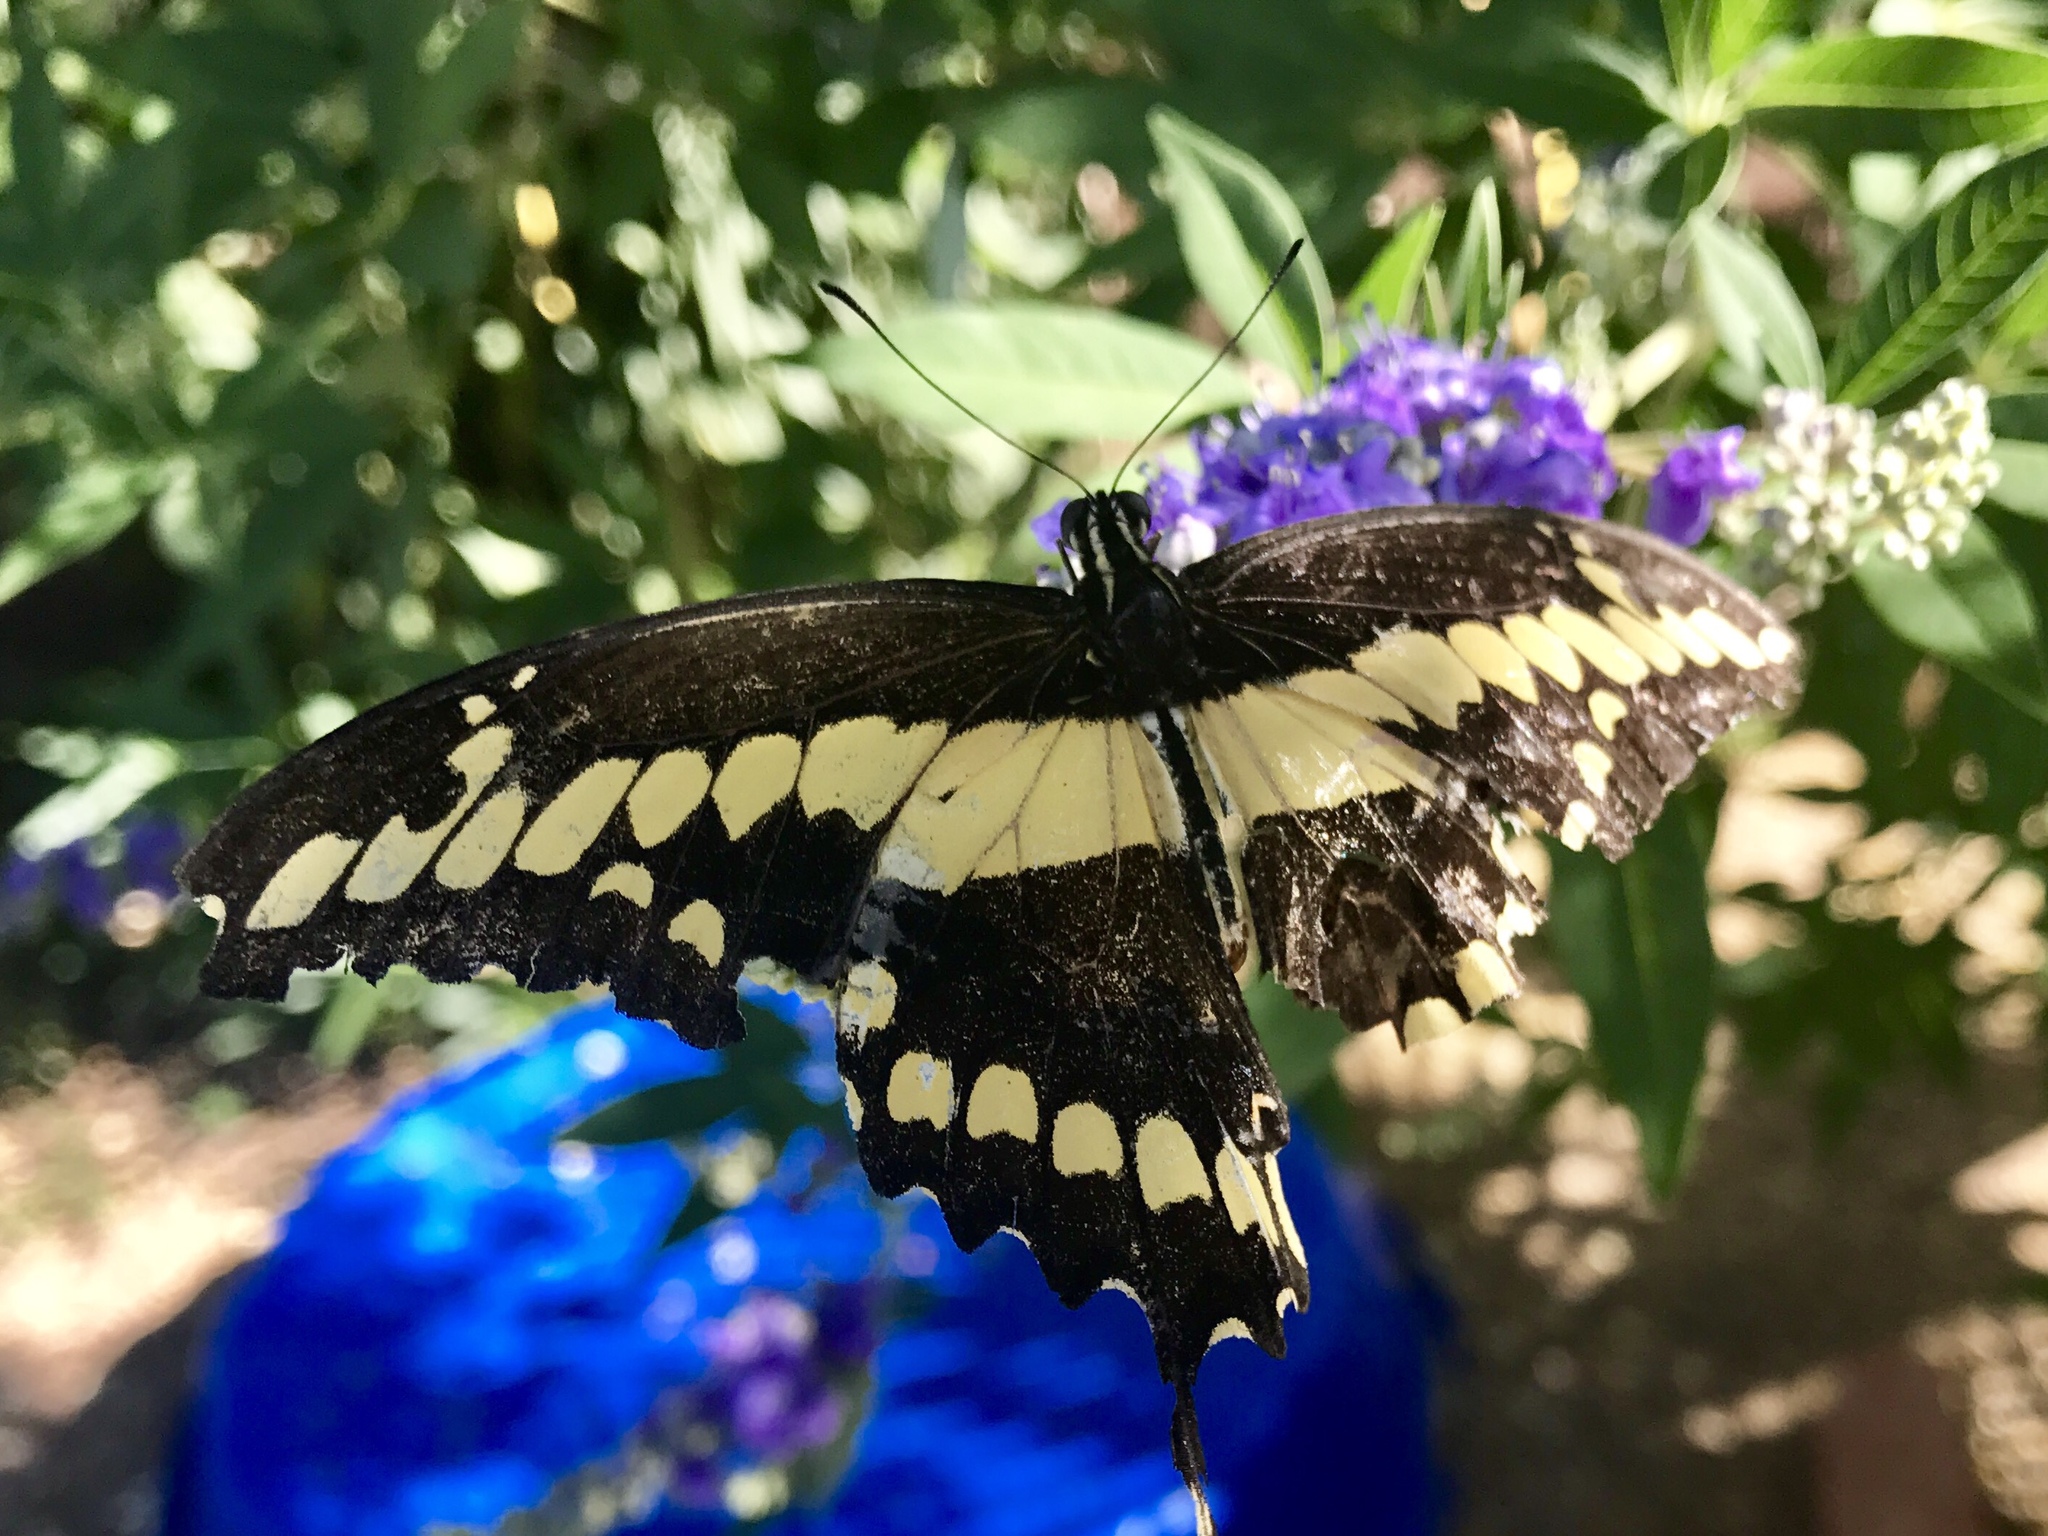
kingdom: Animalia
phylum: Arthropoda
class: Insecta
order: Lepidoptera
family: Papilionidae
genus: Papilio
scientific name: Papilio rumiko
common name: Western giant swallowtail
